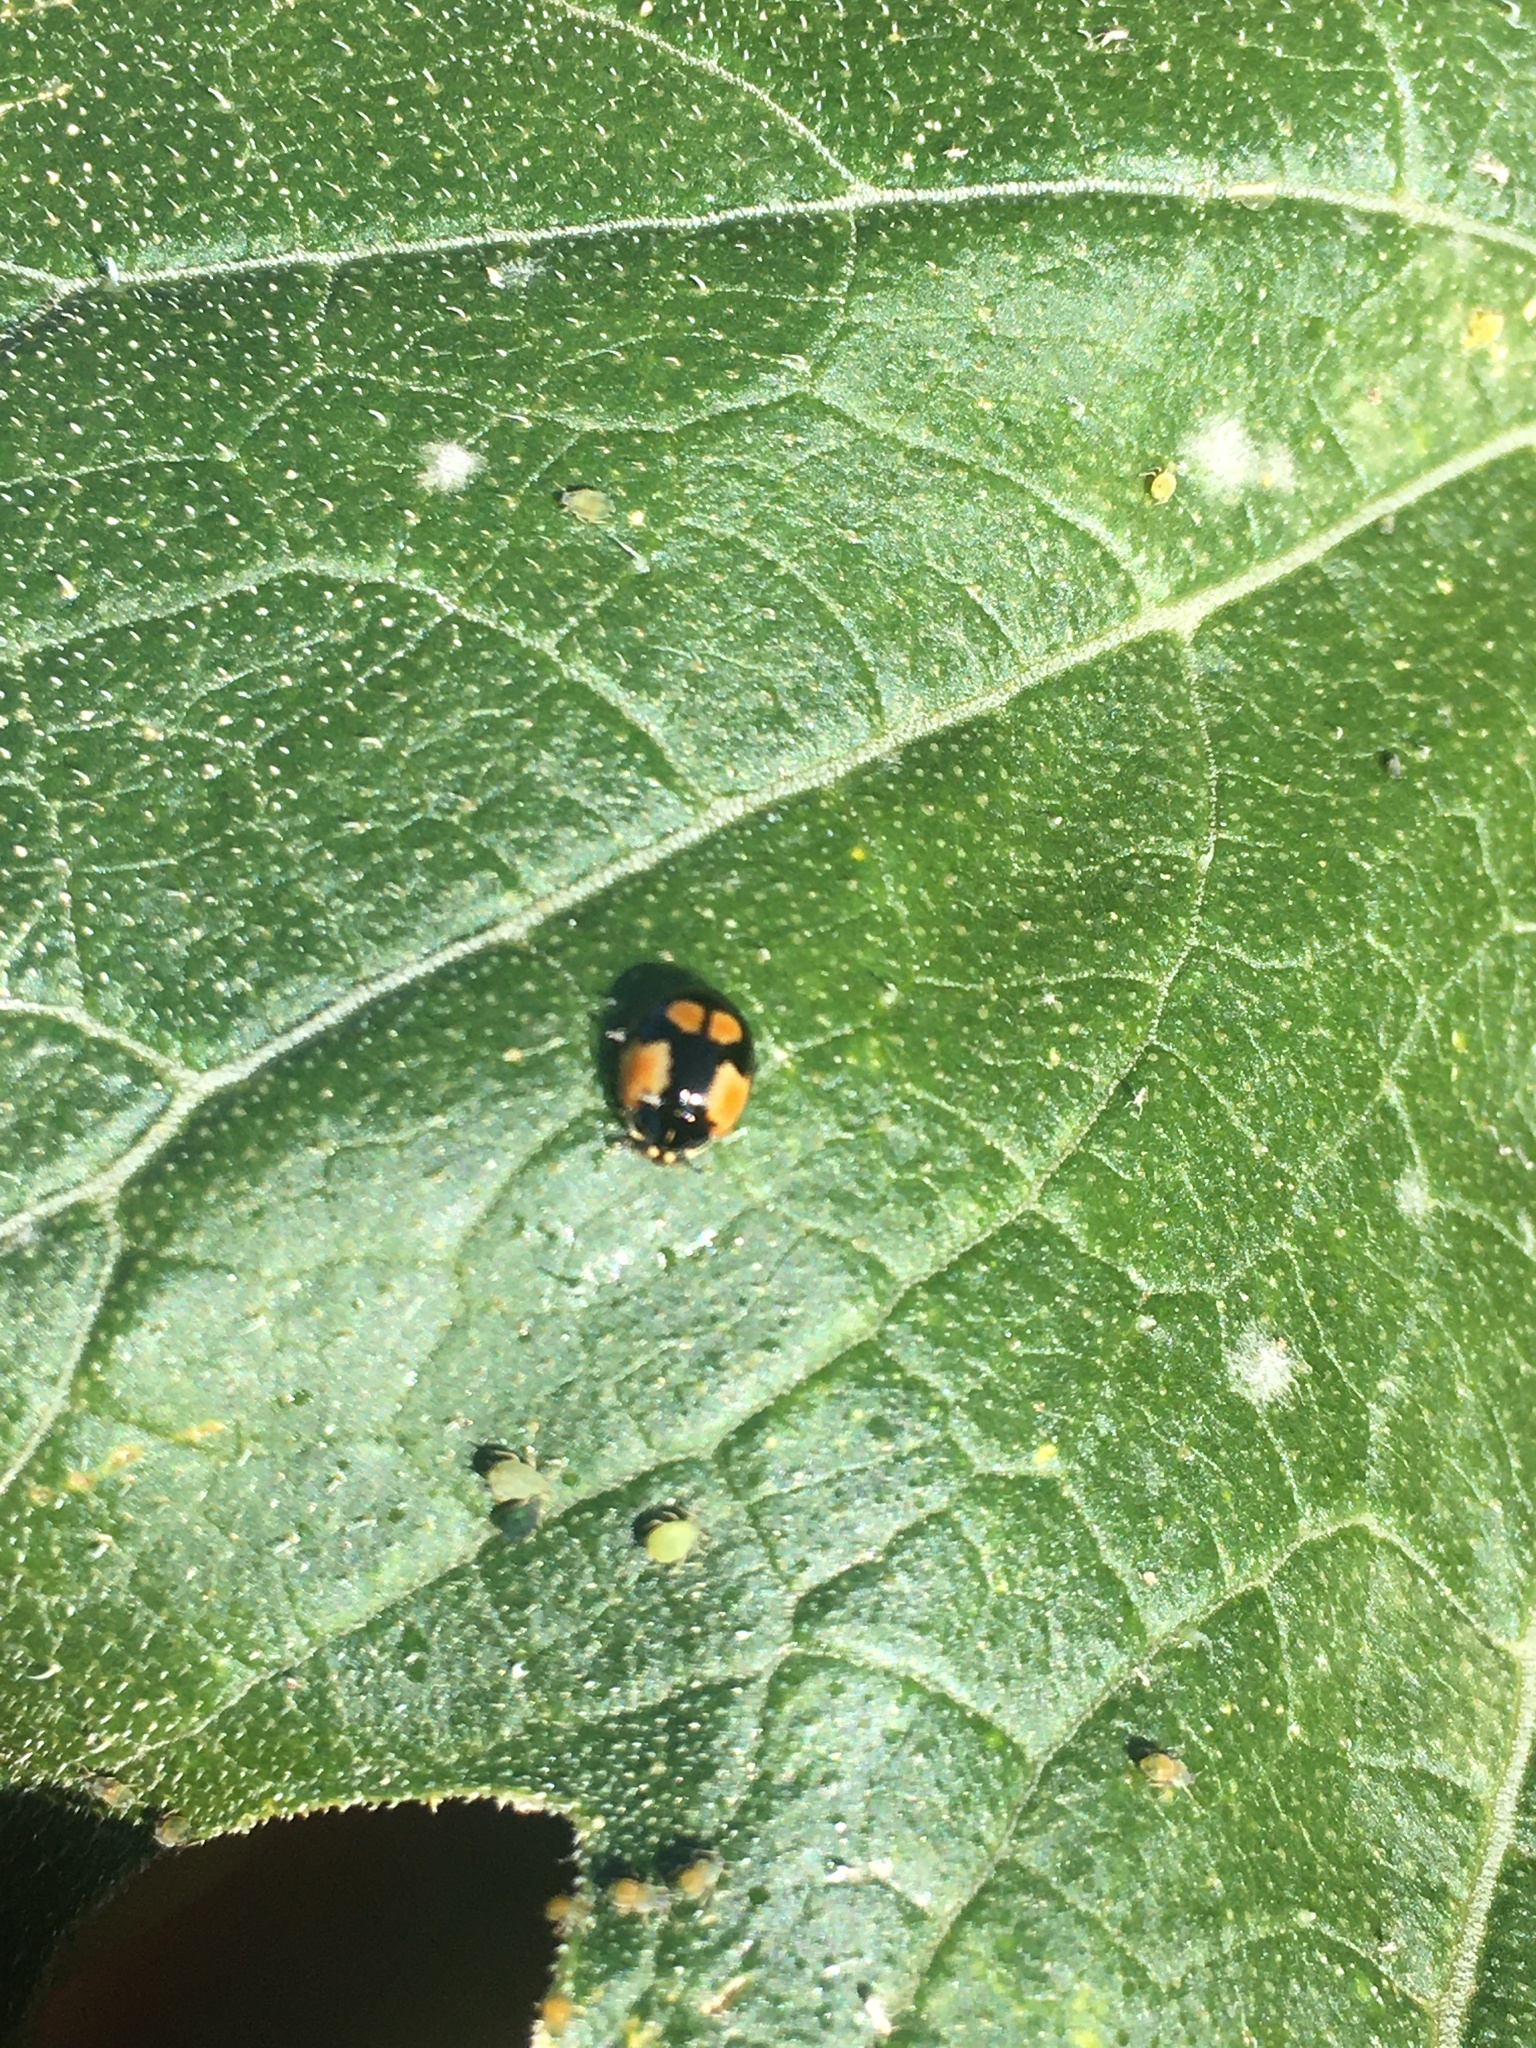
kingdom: Animalia
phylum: Arthropoda
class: Insecta
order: Coleoptera
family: Coccinellidae
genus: Adalia
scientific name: Adalia bipunctata
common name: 2-spot ladybird
